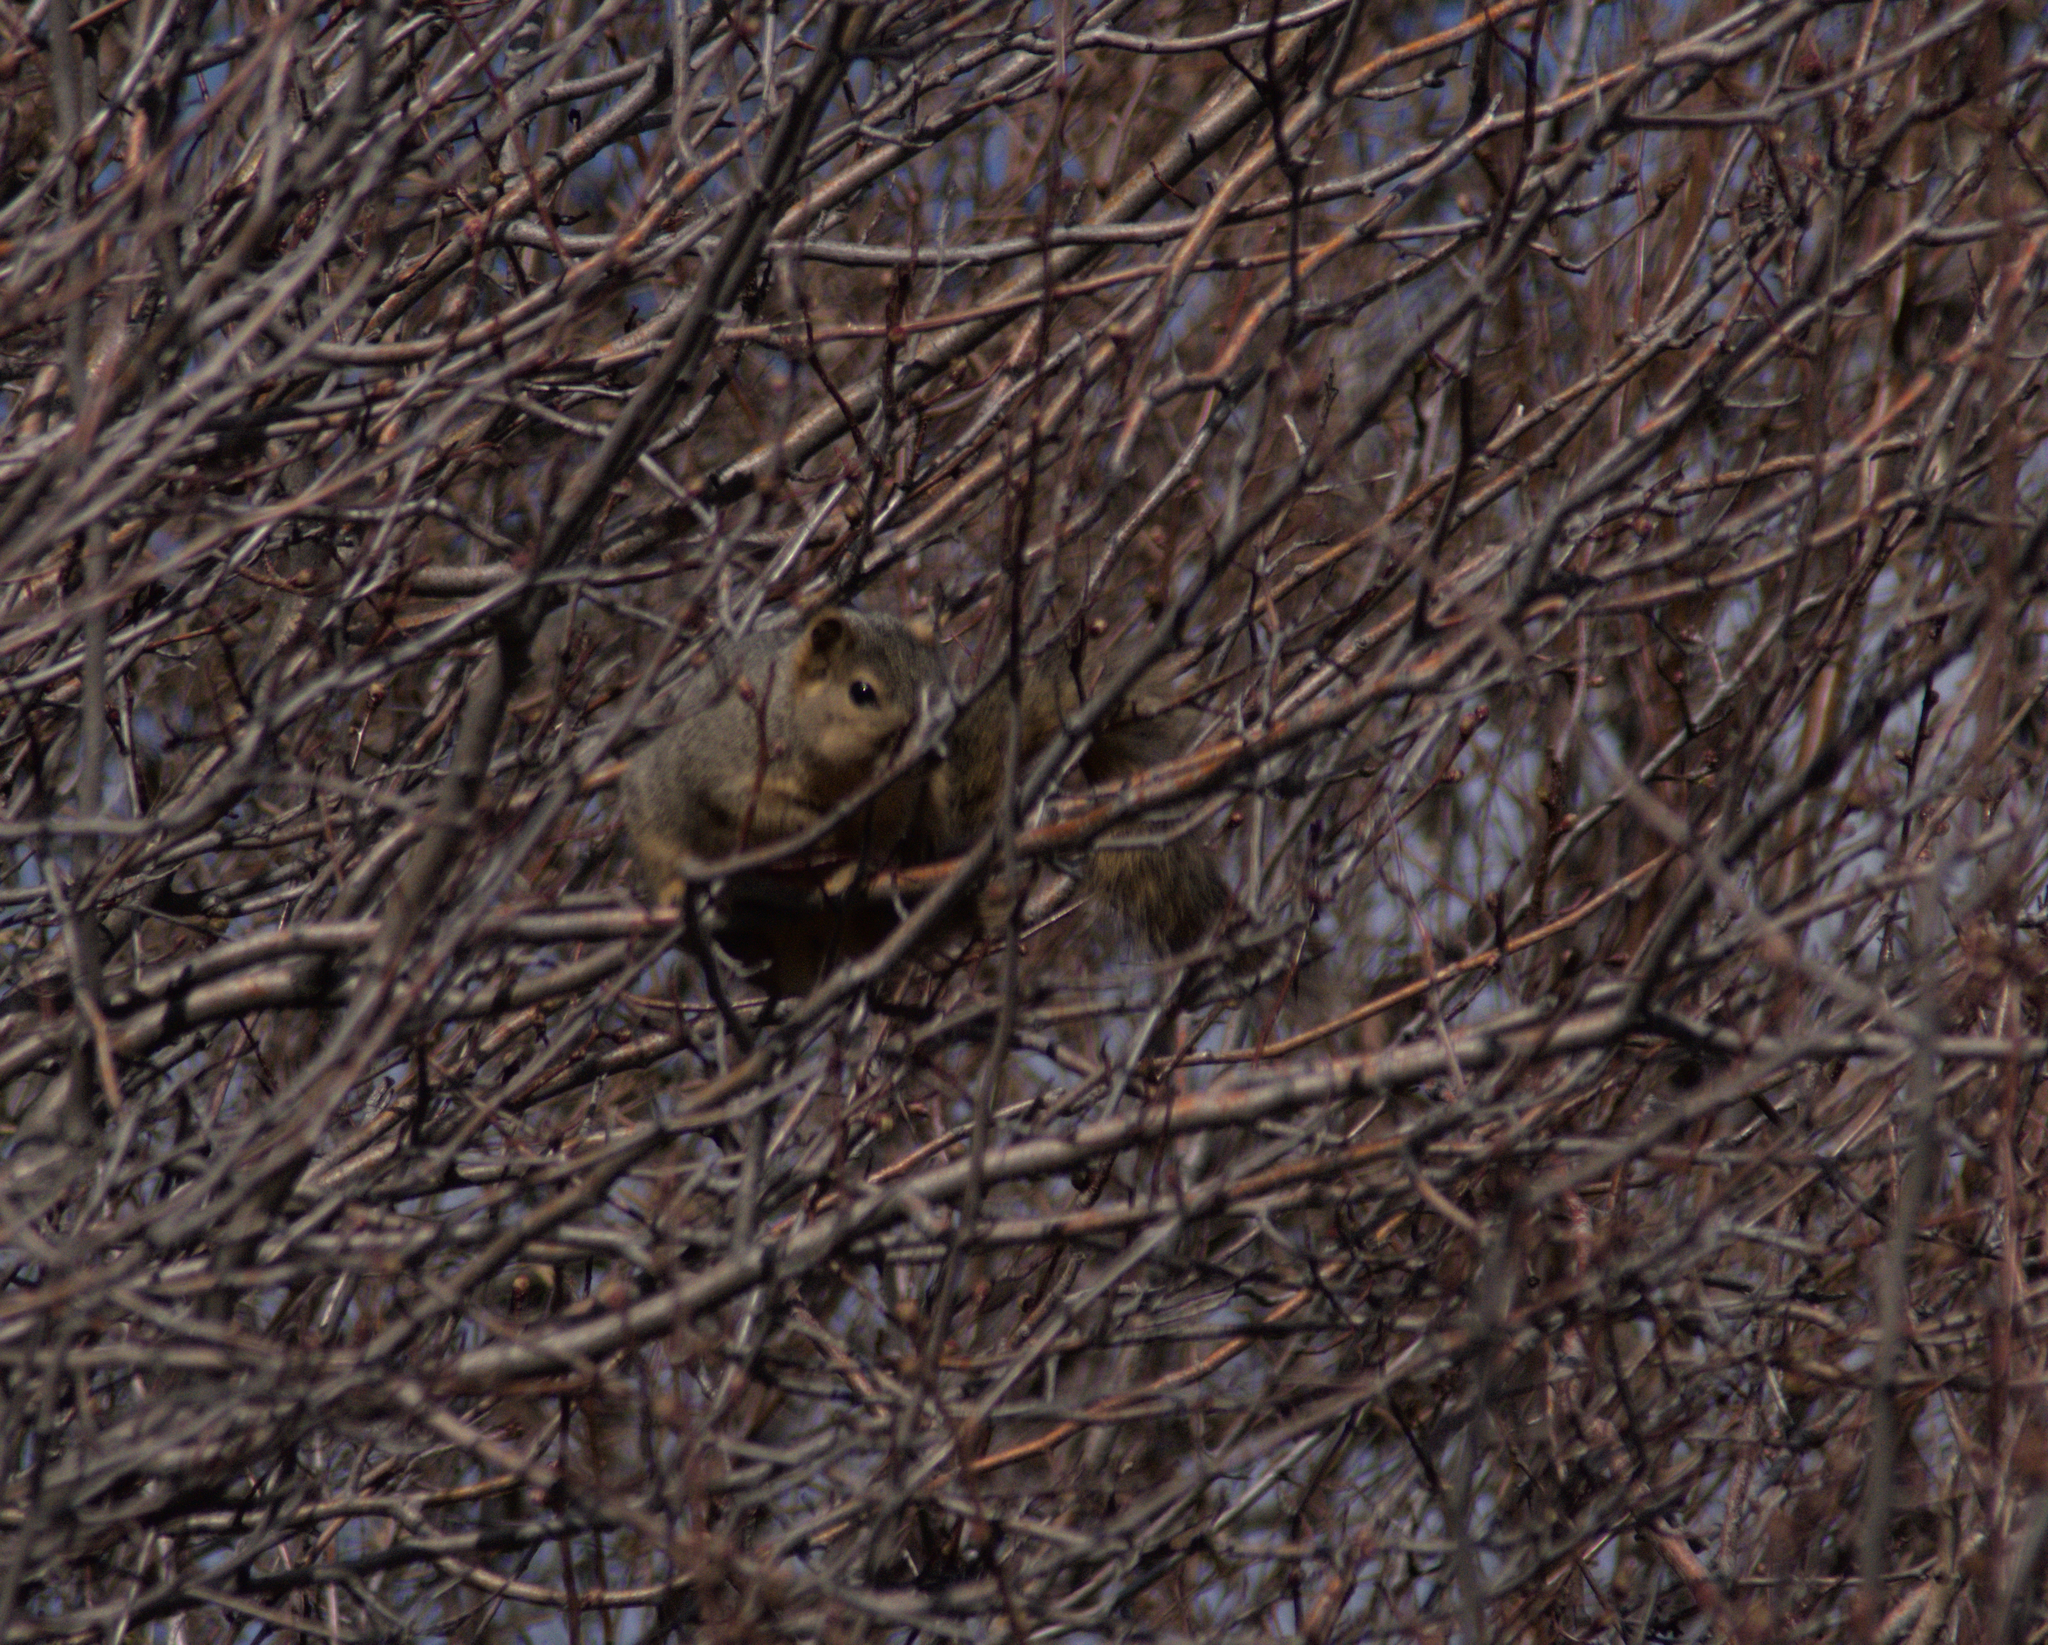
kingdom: Animalia
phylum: Chordata
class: Mammalia
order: Rodentia
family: Sciuridae
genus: Sciurus
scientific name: Sciurus niger
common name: Fox squirrel
